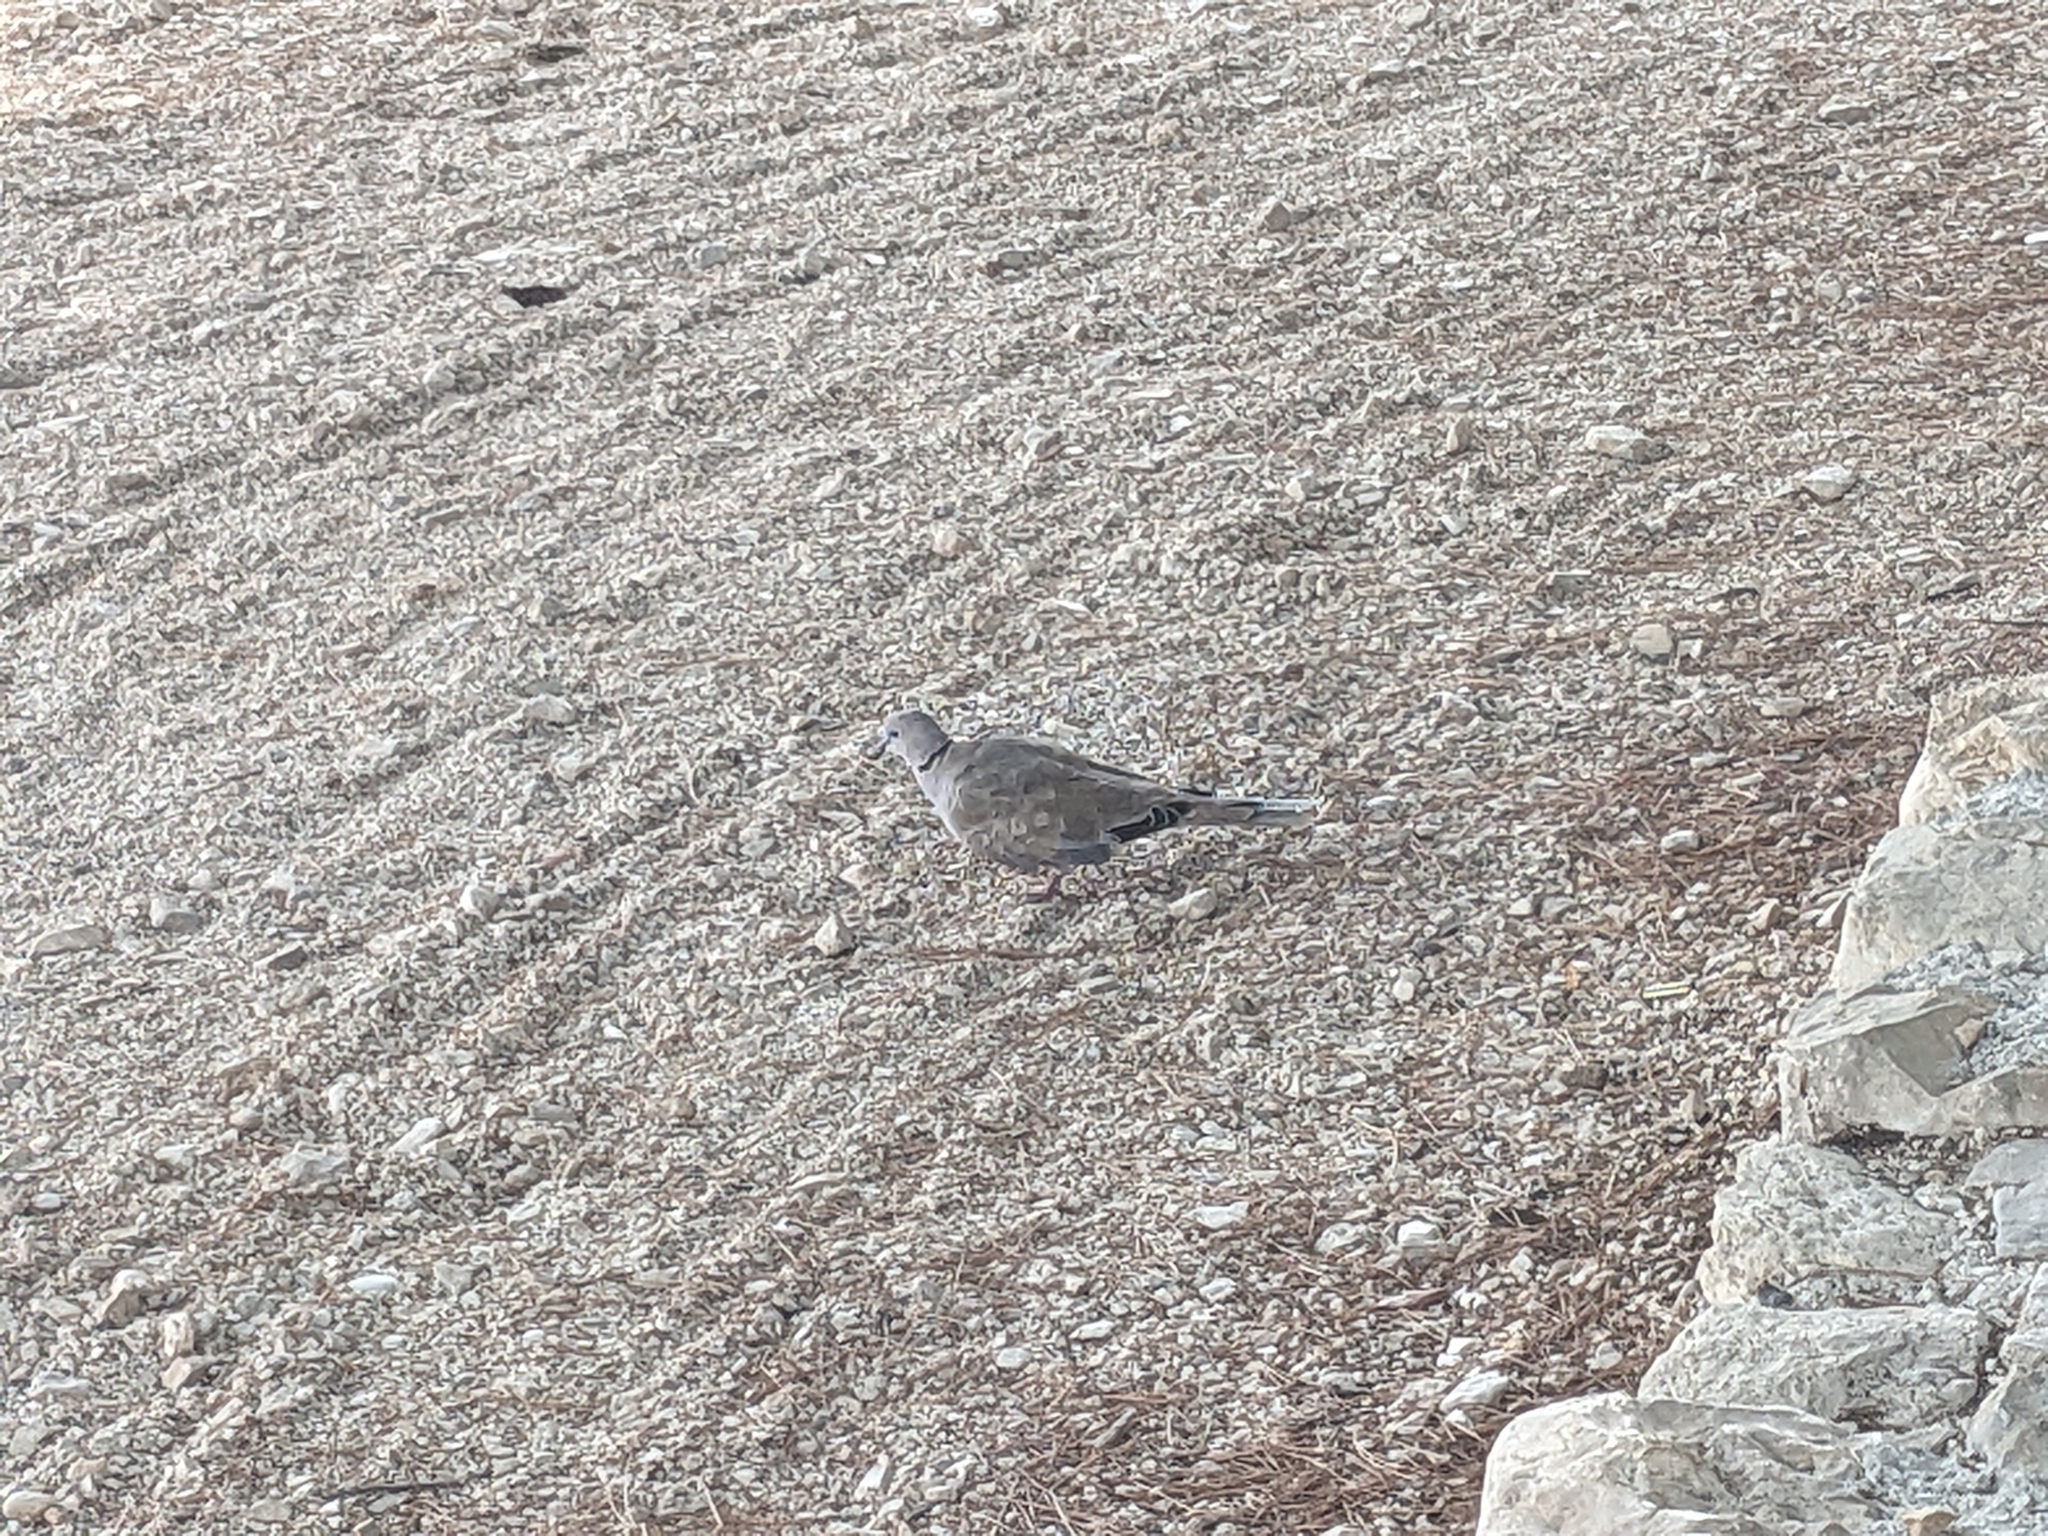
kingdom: Animalia
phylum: Chordata
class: Aves
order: Columbiformes
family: Columbidae
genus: Streptopelia
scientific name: Streptopelia decaocto
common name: Eurasian collared dove
